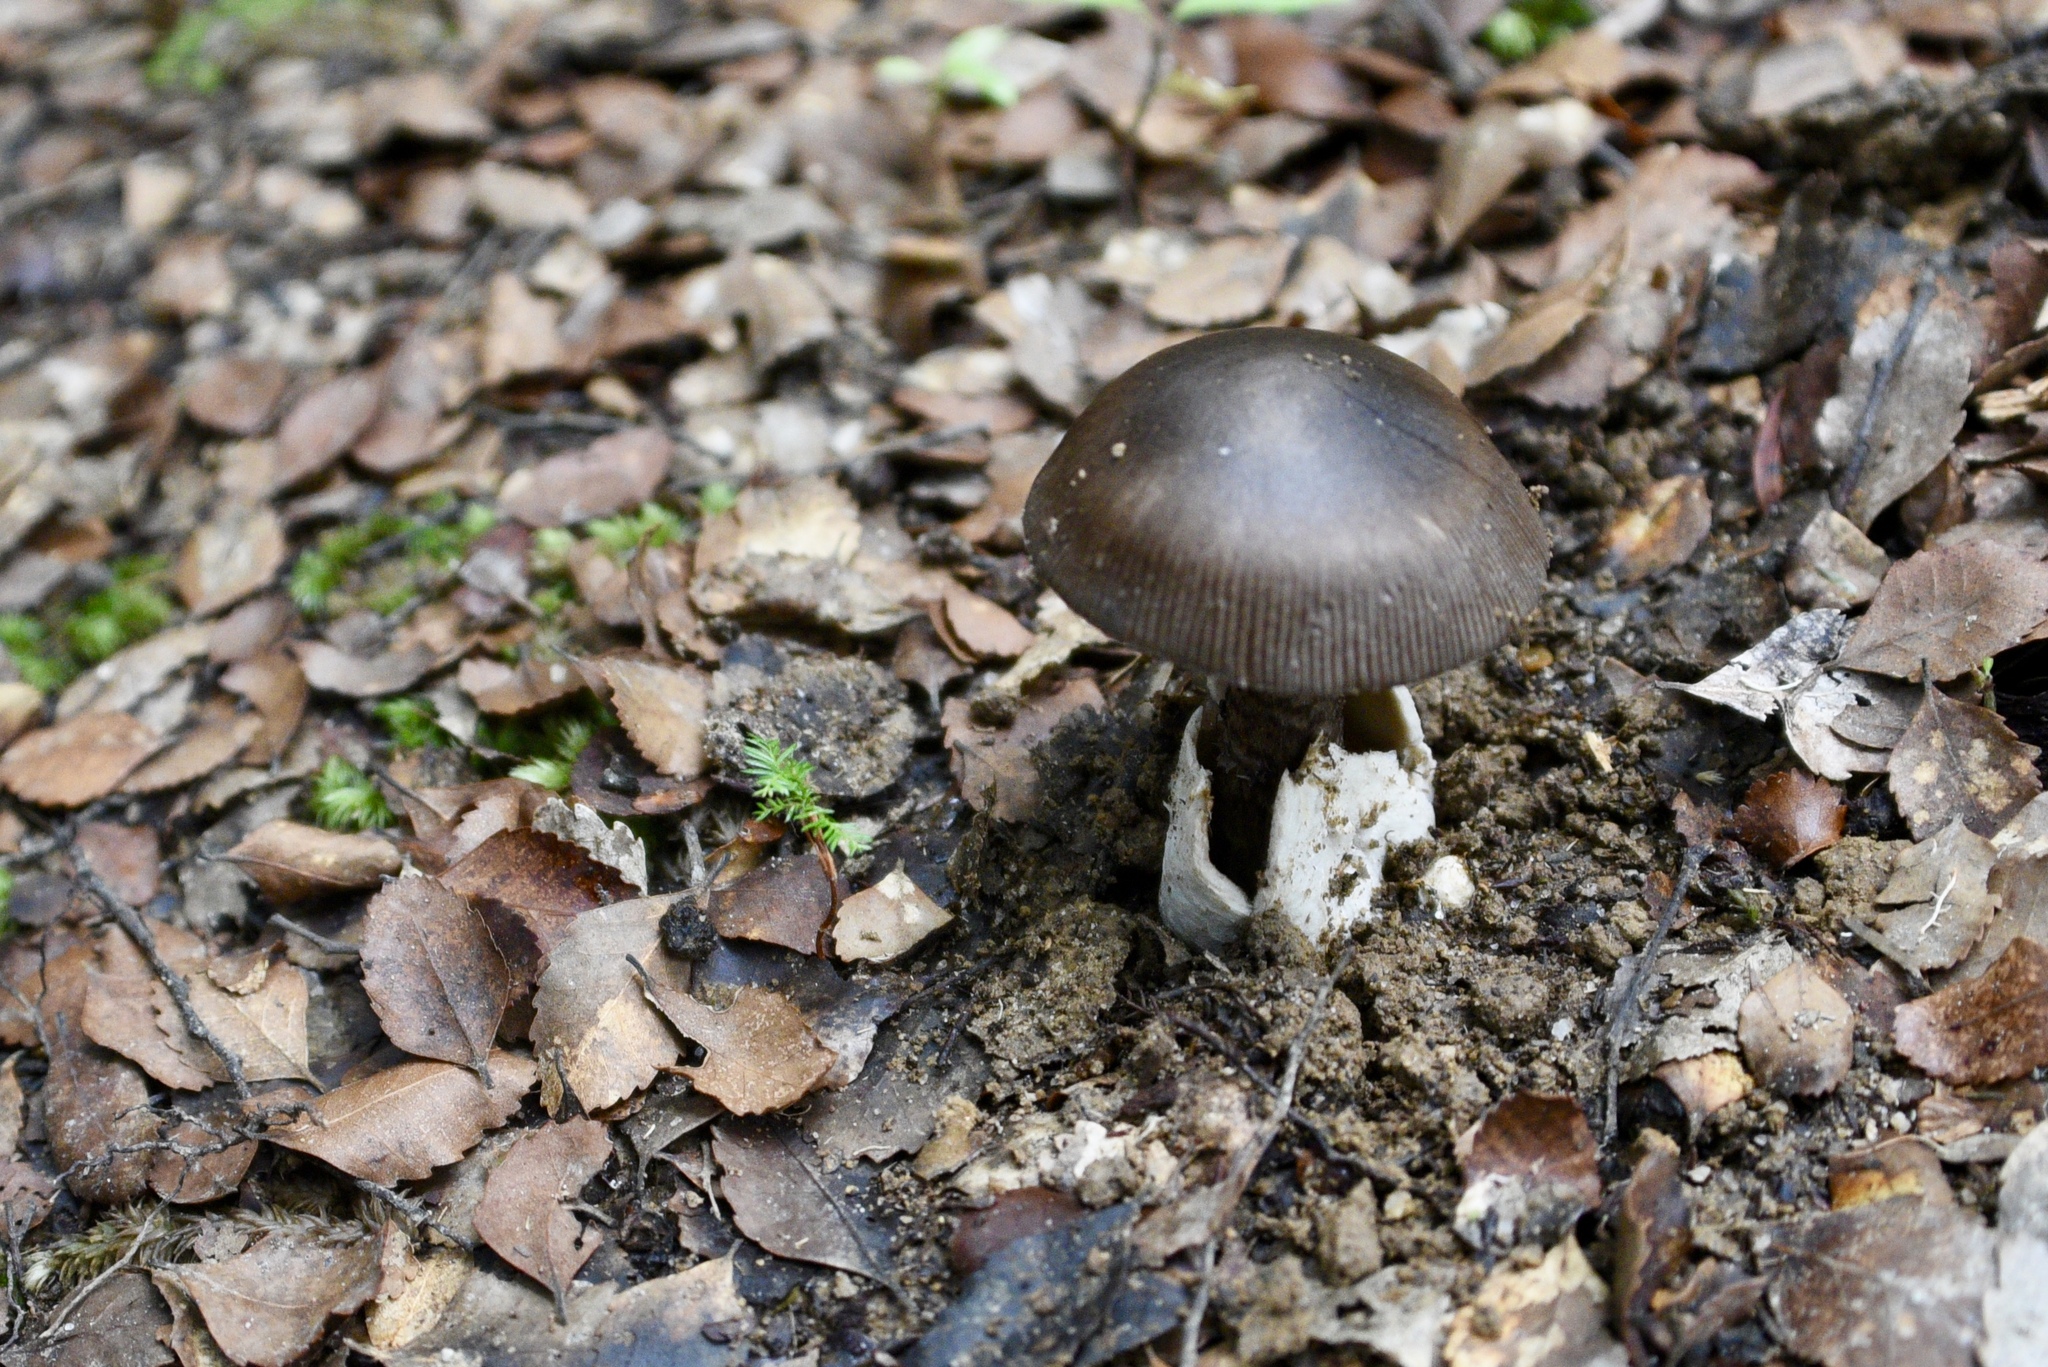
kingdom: Fungi
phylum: Basidiomycota
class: Agaricomycetes
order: Agaricales
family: Amanitaceae
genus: Amanita
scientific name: Amanita pekeoides
